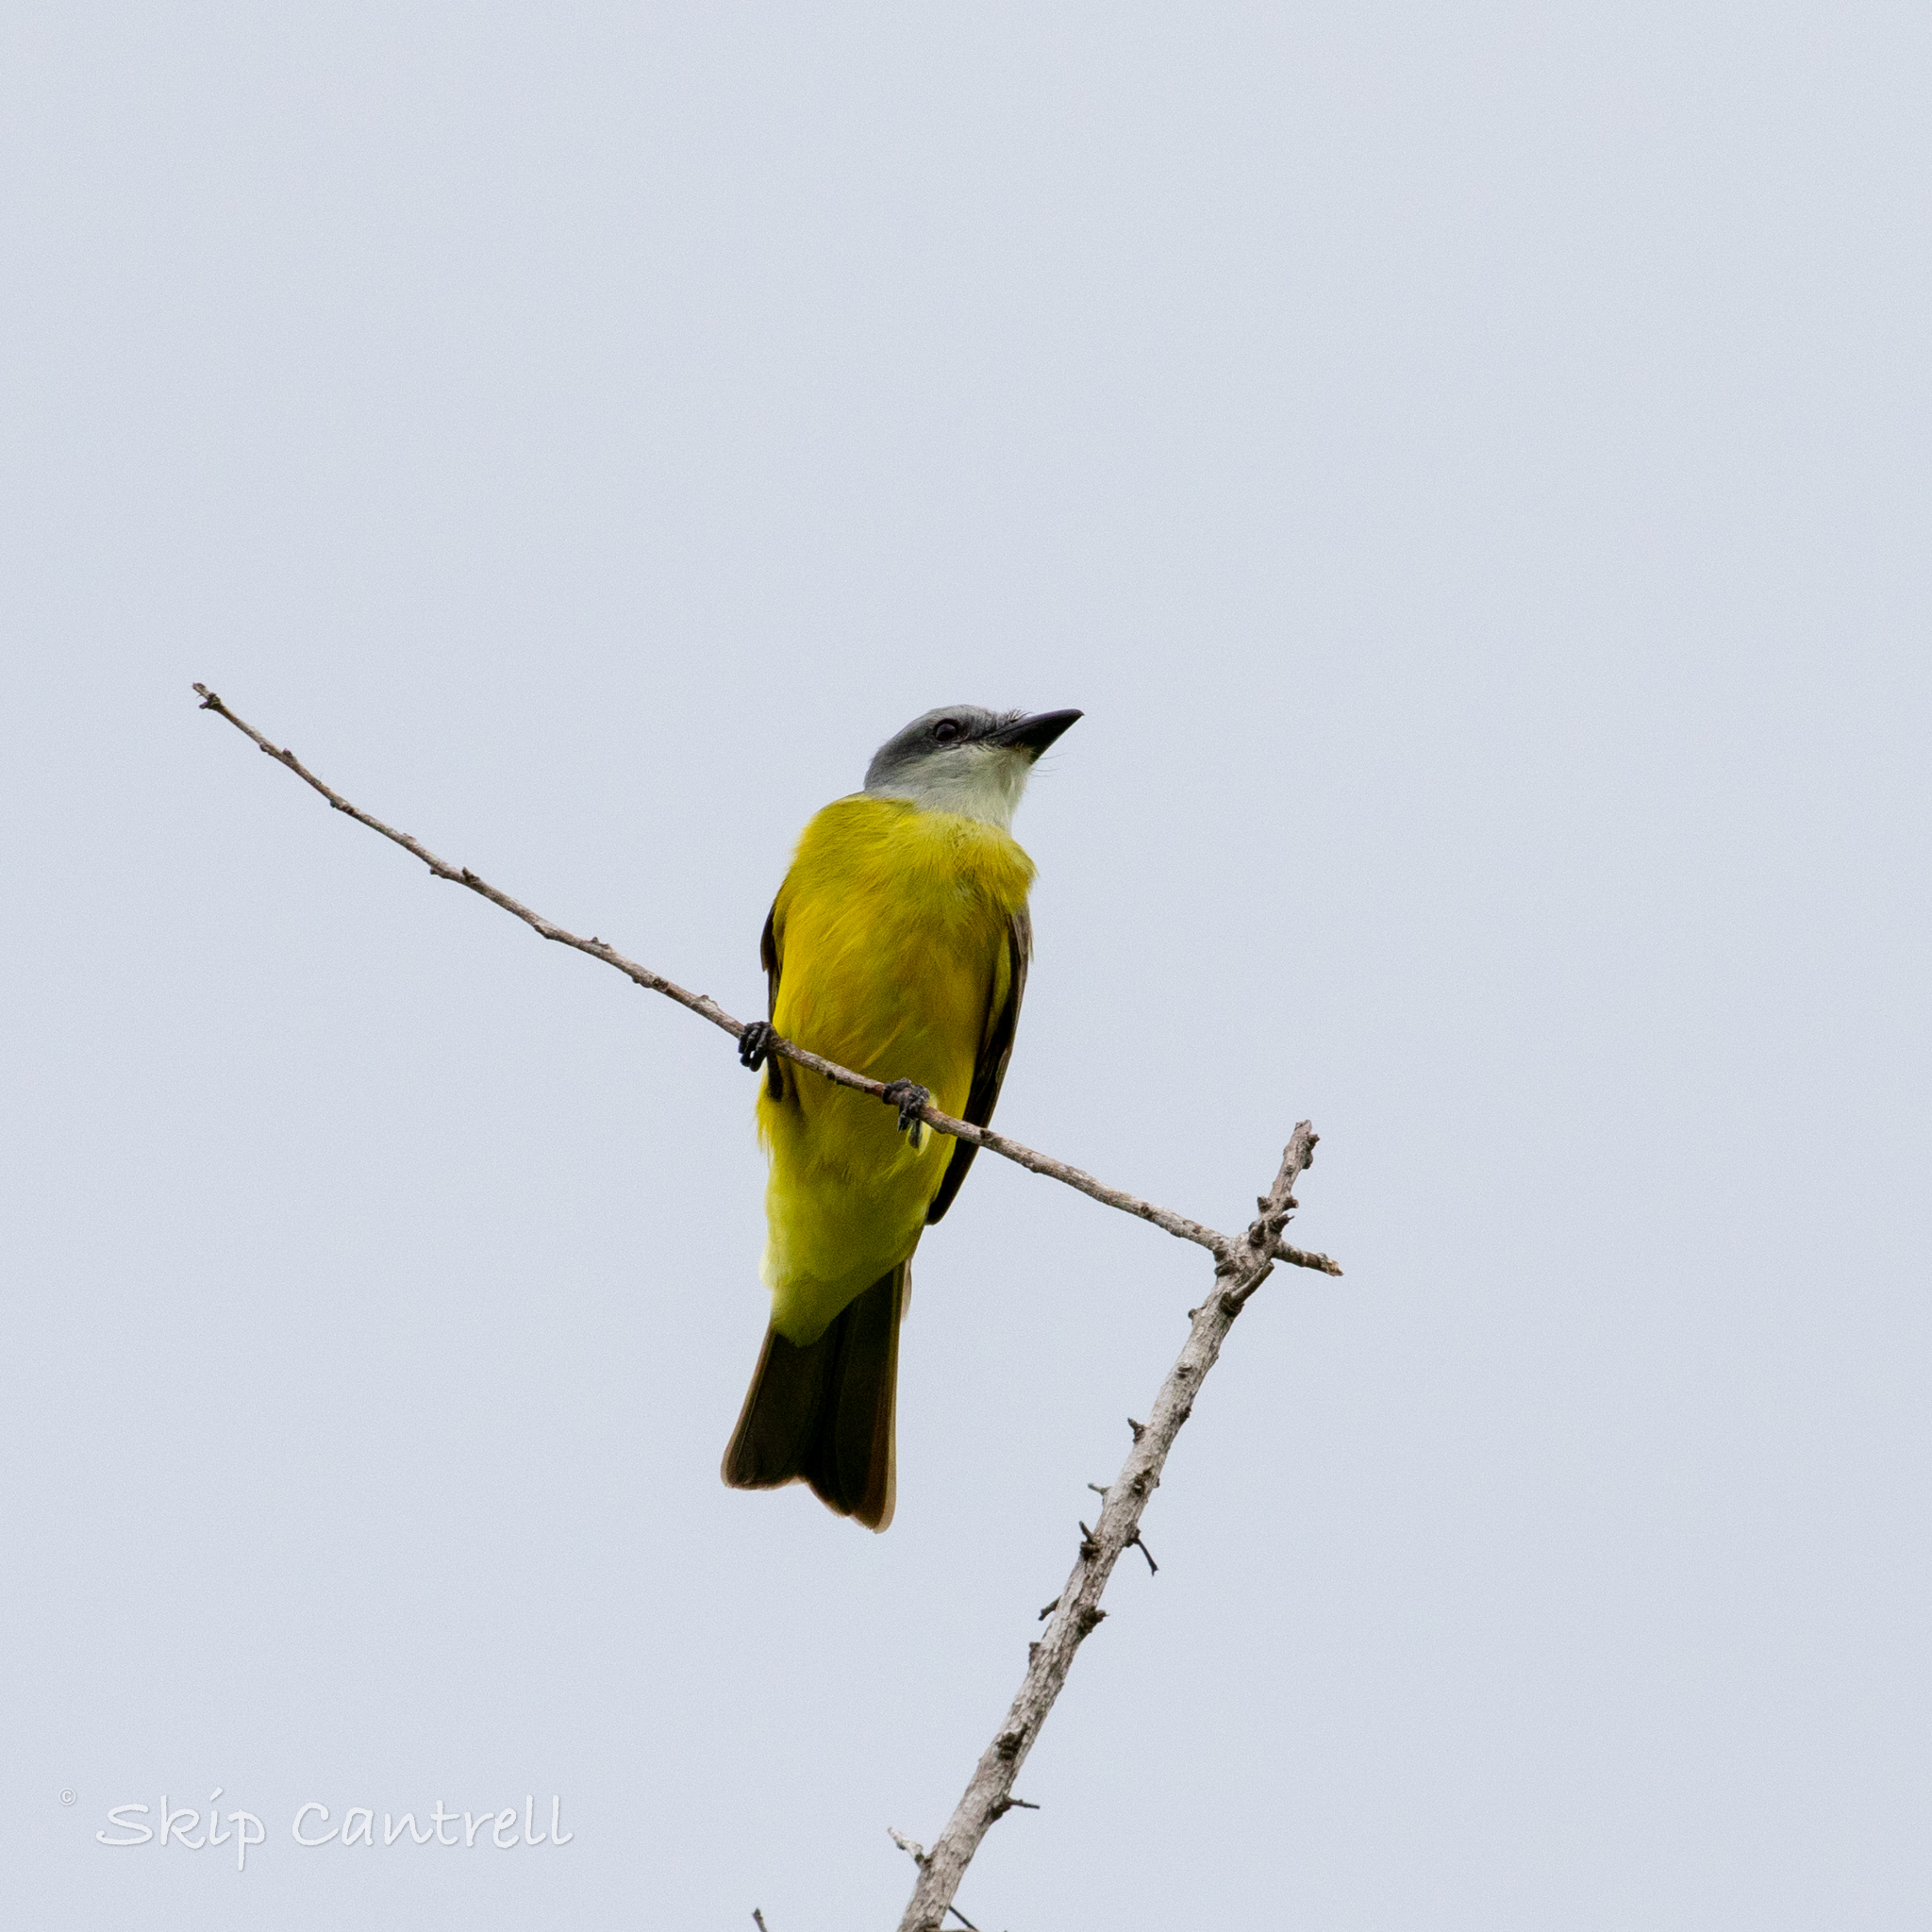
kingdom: Animalia
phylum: Chordata
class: Aves
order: Passeriformes
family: Tyrannidae
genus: Tyrannus
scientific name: Tyrannus couchii
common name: Couch's kingbird
